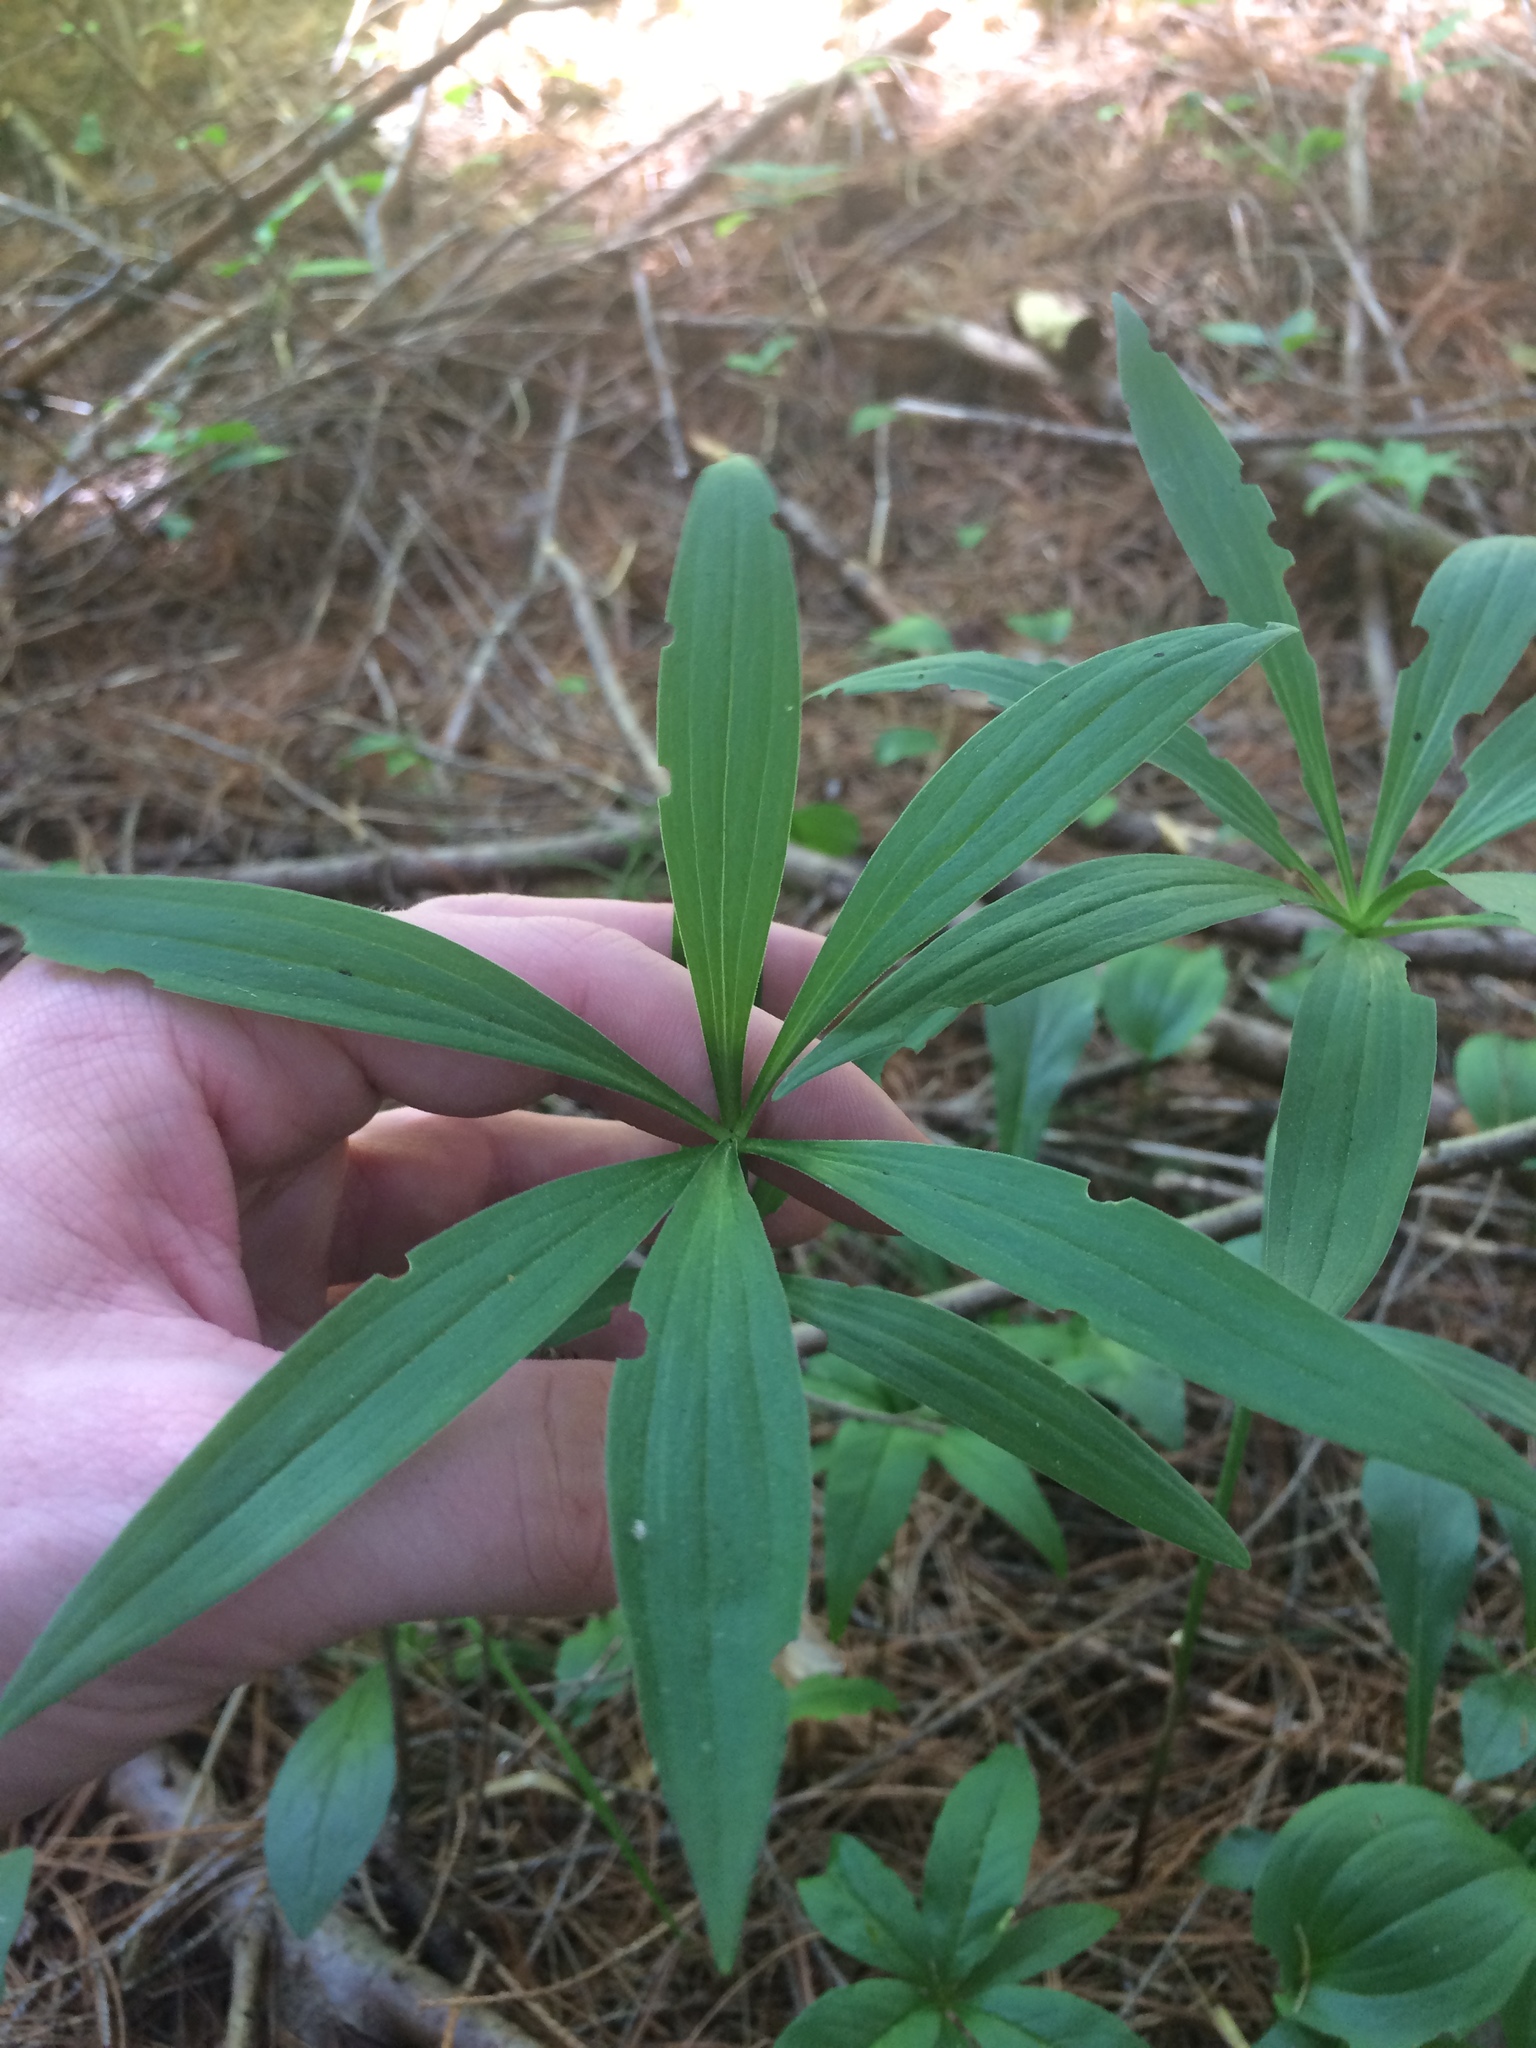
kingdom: Plantae
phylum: Tracheophyta
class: Liliopsida
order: Liliales
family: Liliaceae
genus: Lilium
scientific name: Lilium canadense
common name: Canada lily
